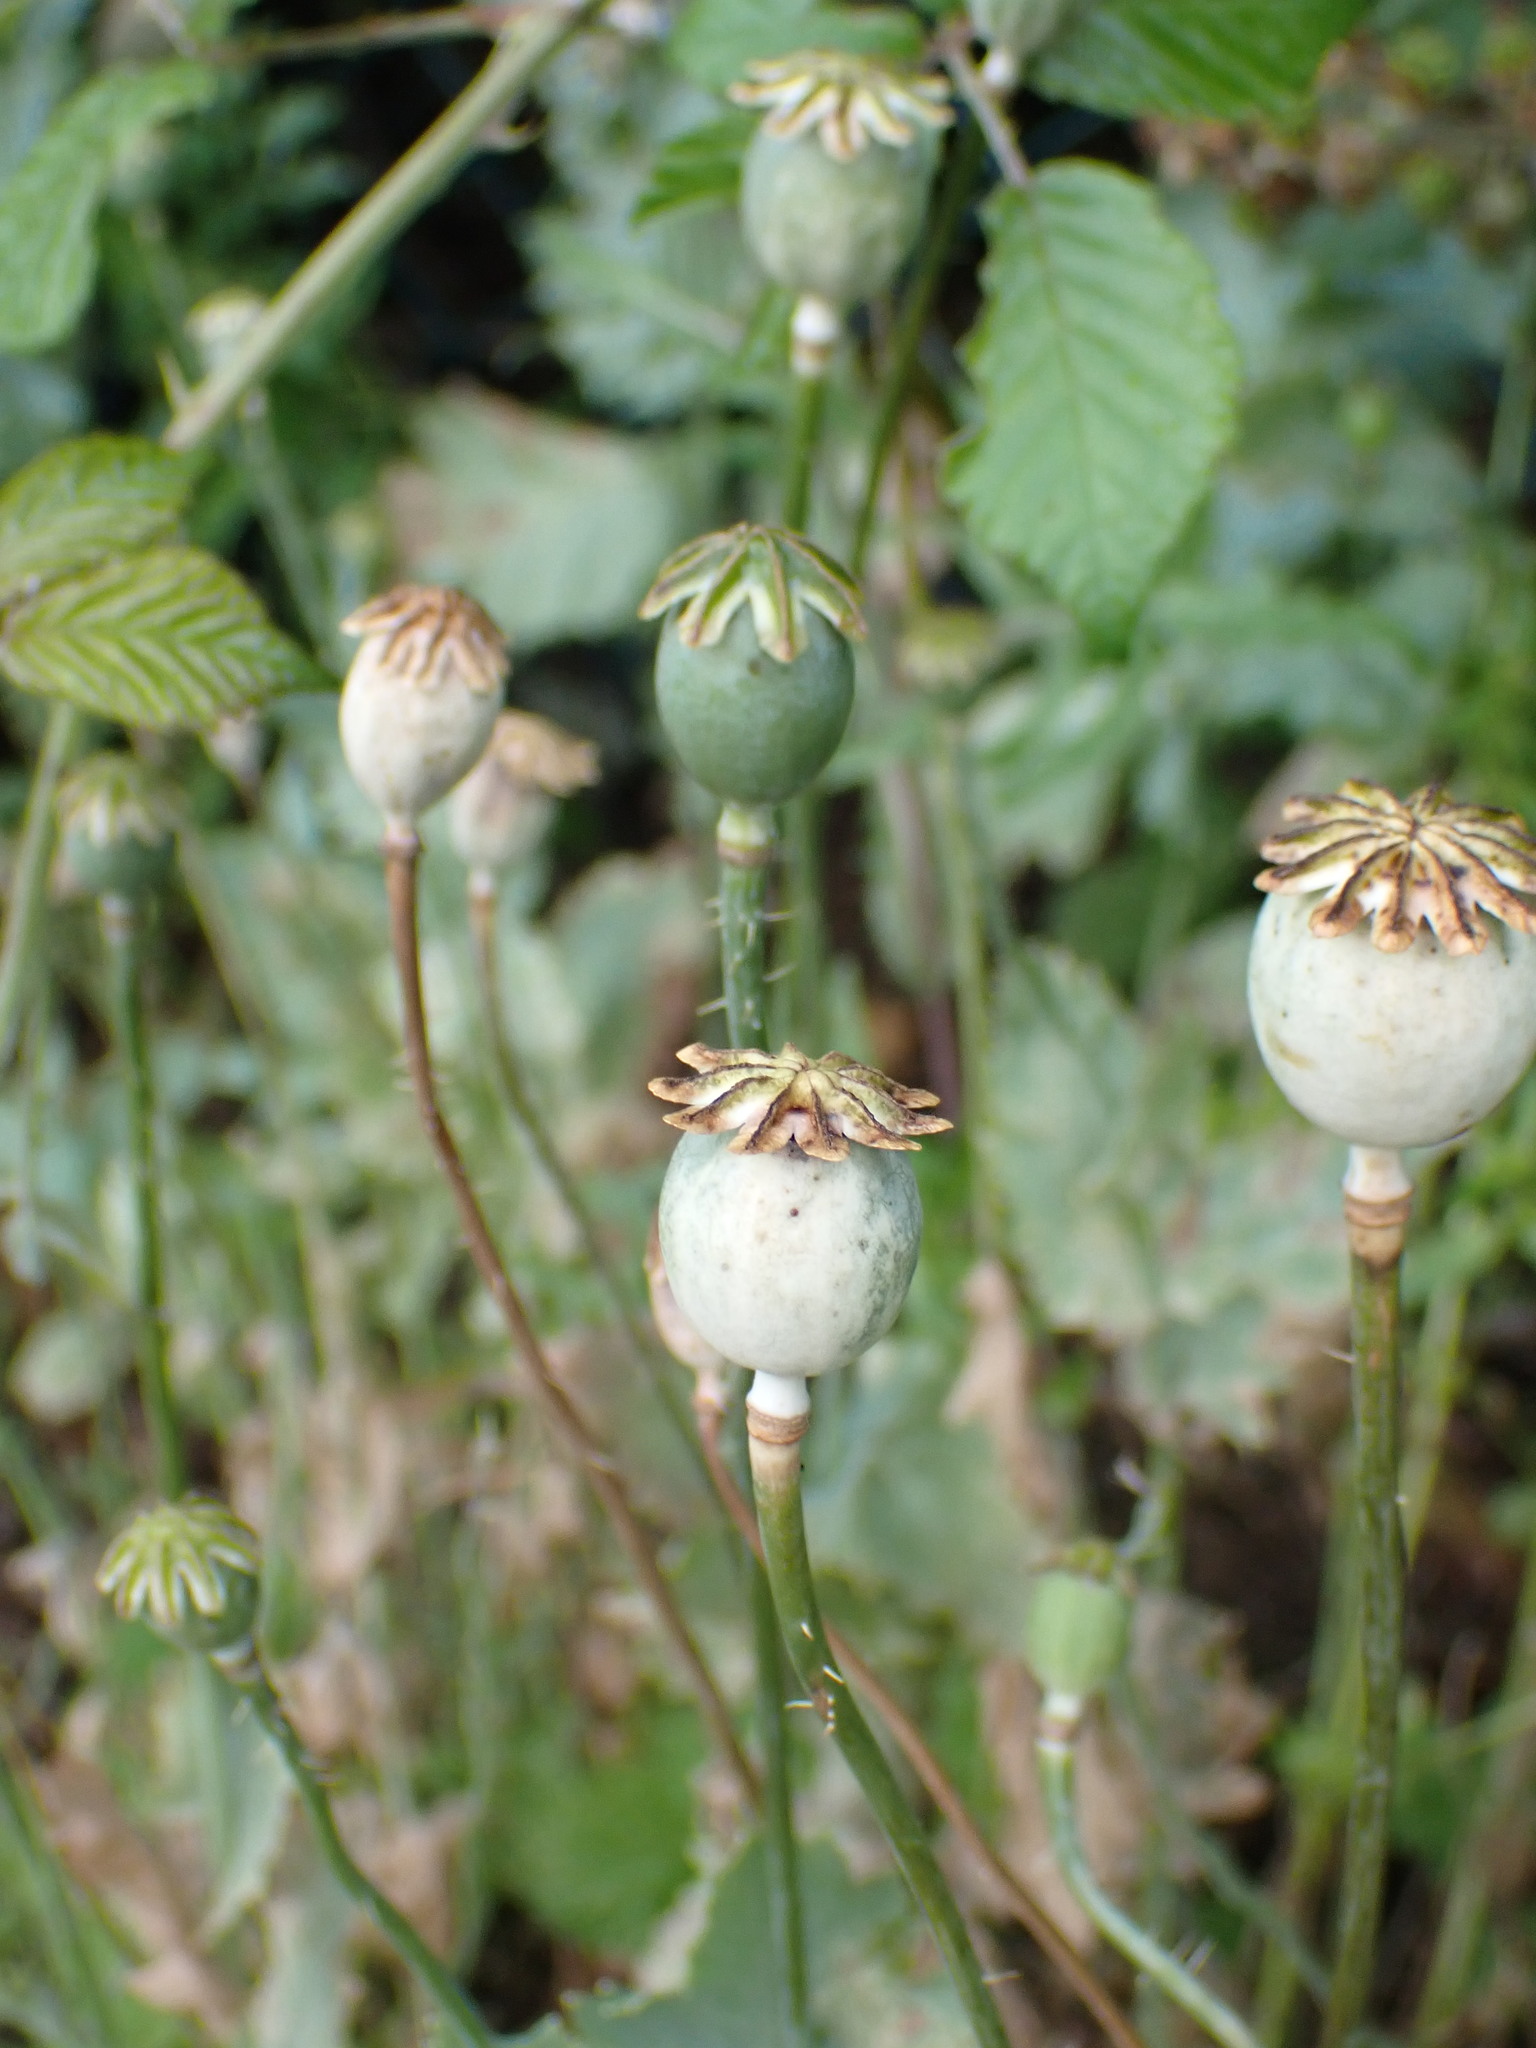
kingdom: Plantae
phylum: Tracheophyta
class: Magnoliopsida
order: Ranunculales
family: Papaveraceae
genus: Papaver
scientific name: Papaver somniferum
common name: Opium poppy
